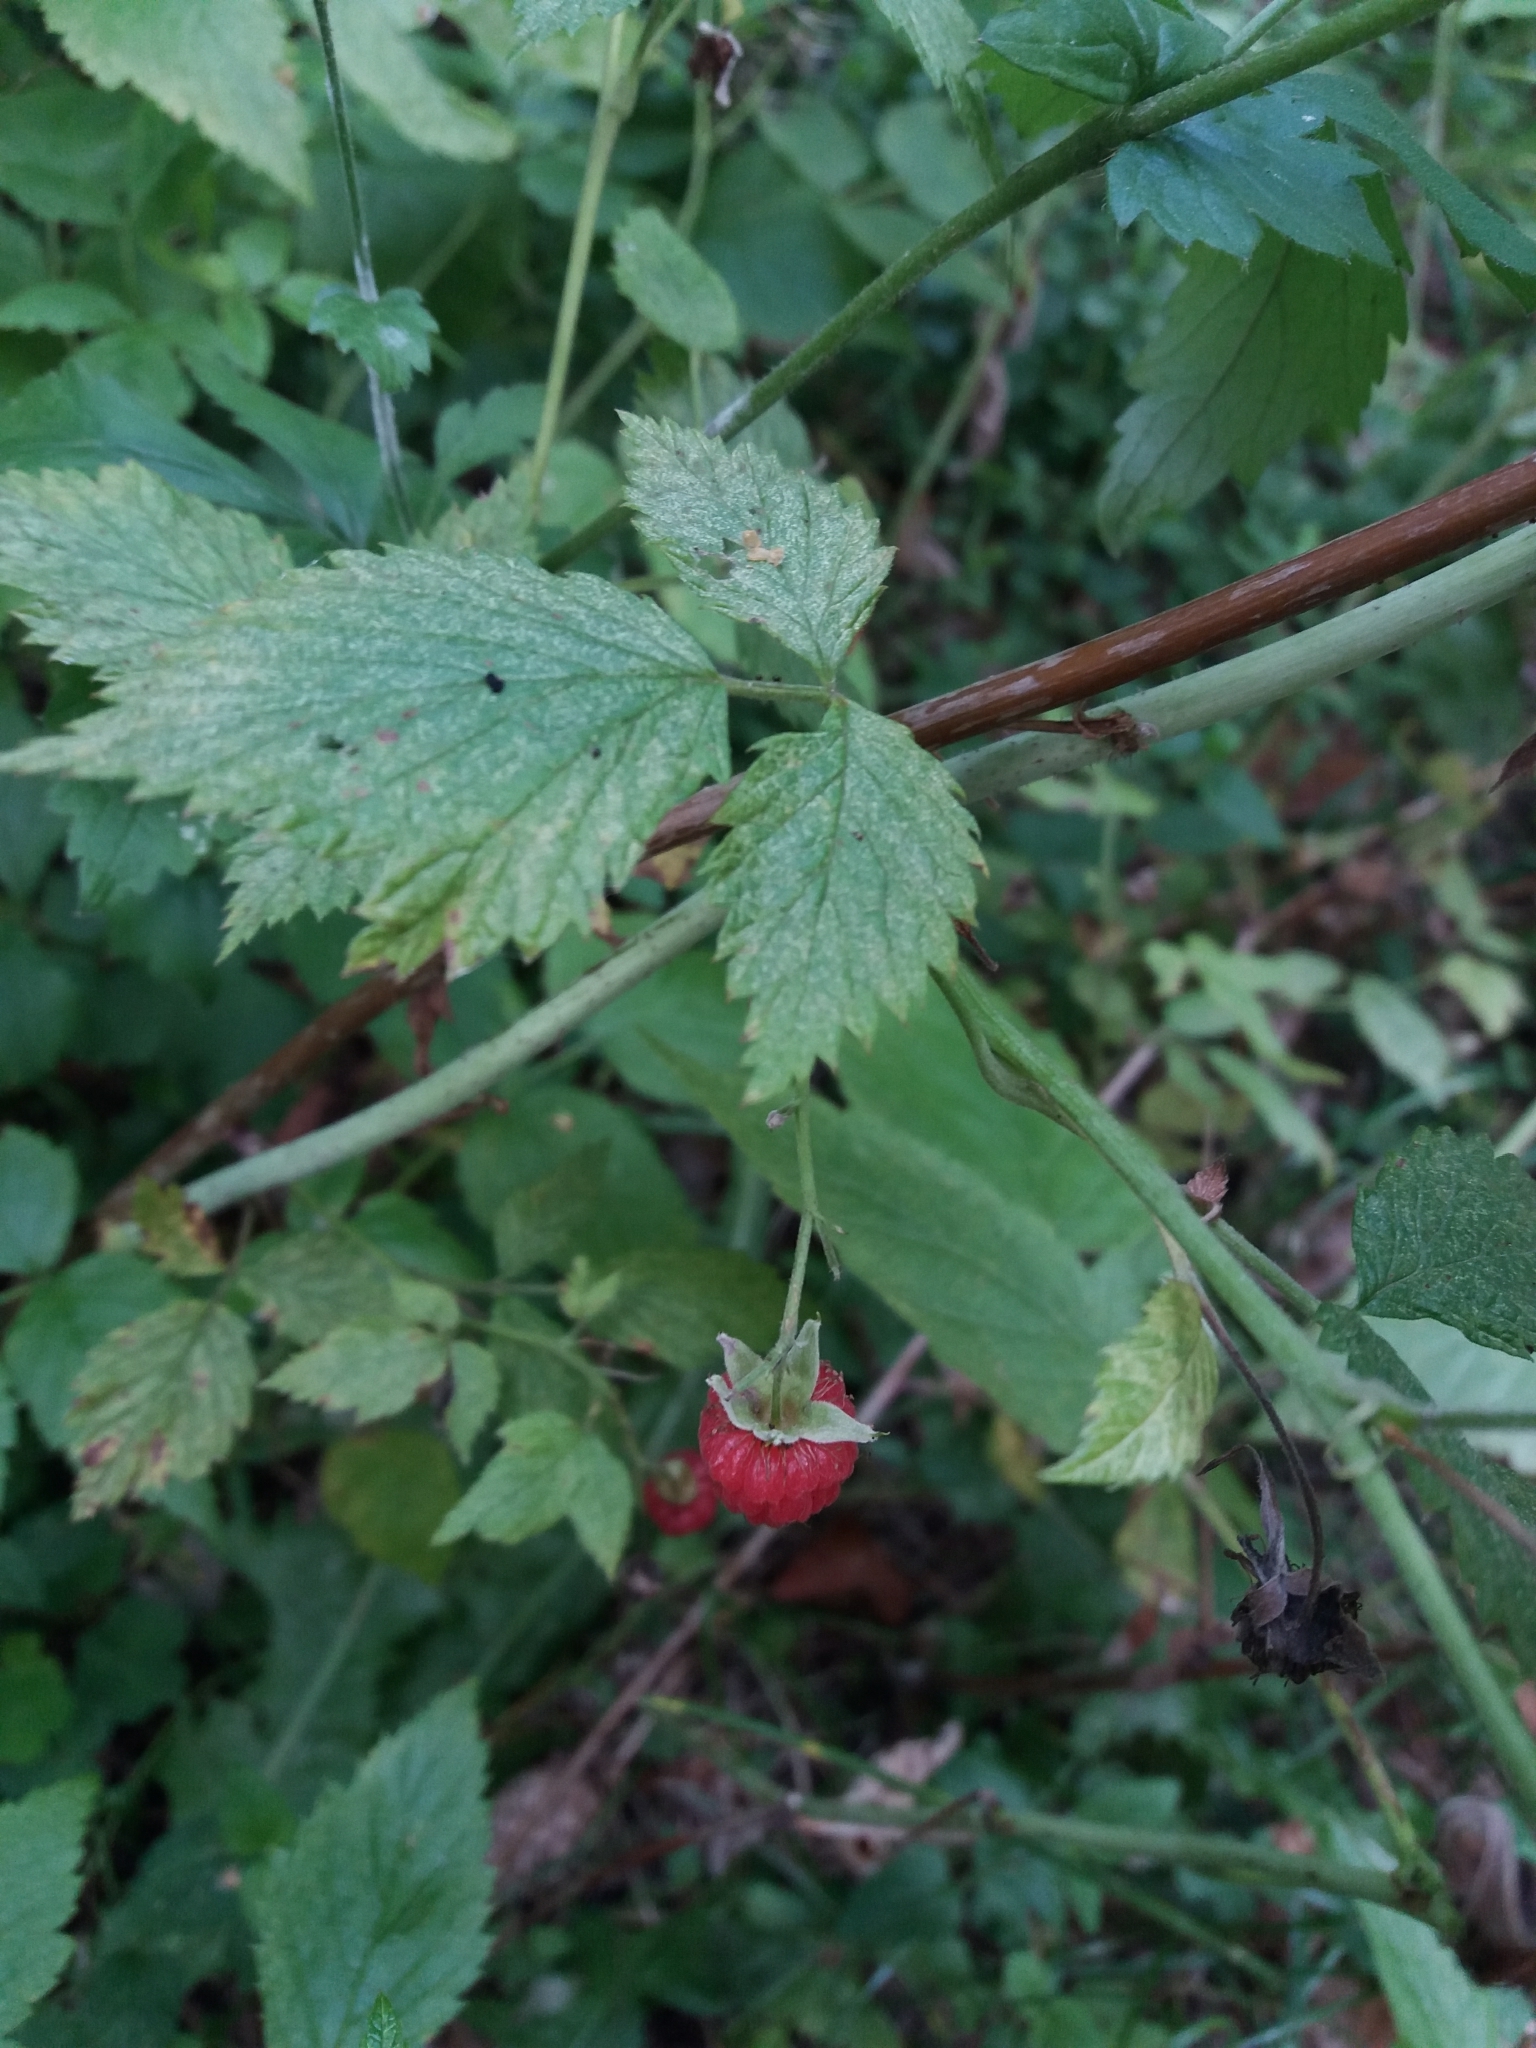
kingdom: Plantae
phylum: Tracheophyta
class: Magnoliopsida
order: Rosales
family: Rosaceae
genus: Rubus
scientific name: Rubus idaeus
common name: Raspberry
